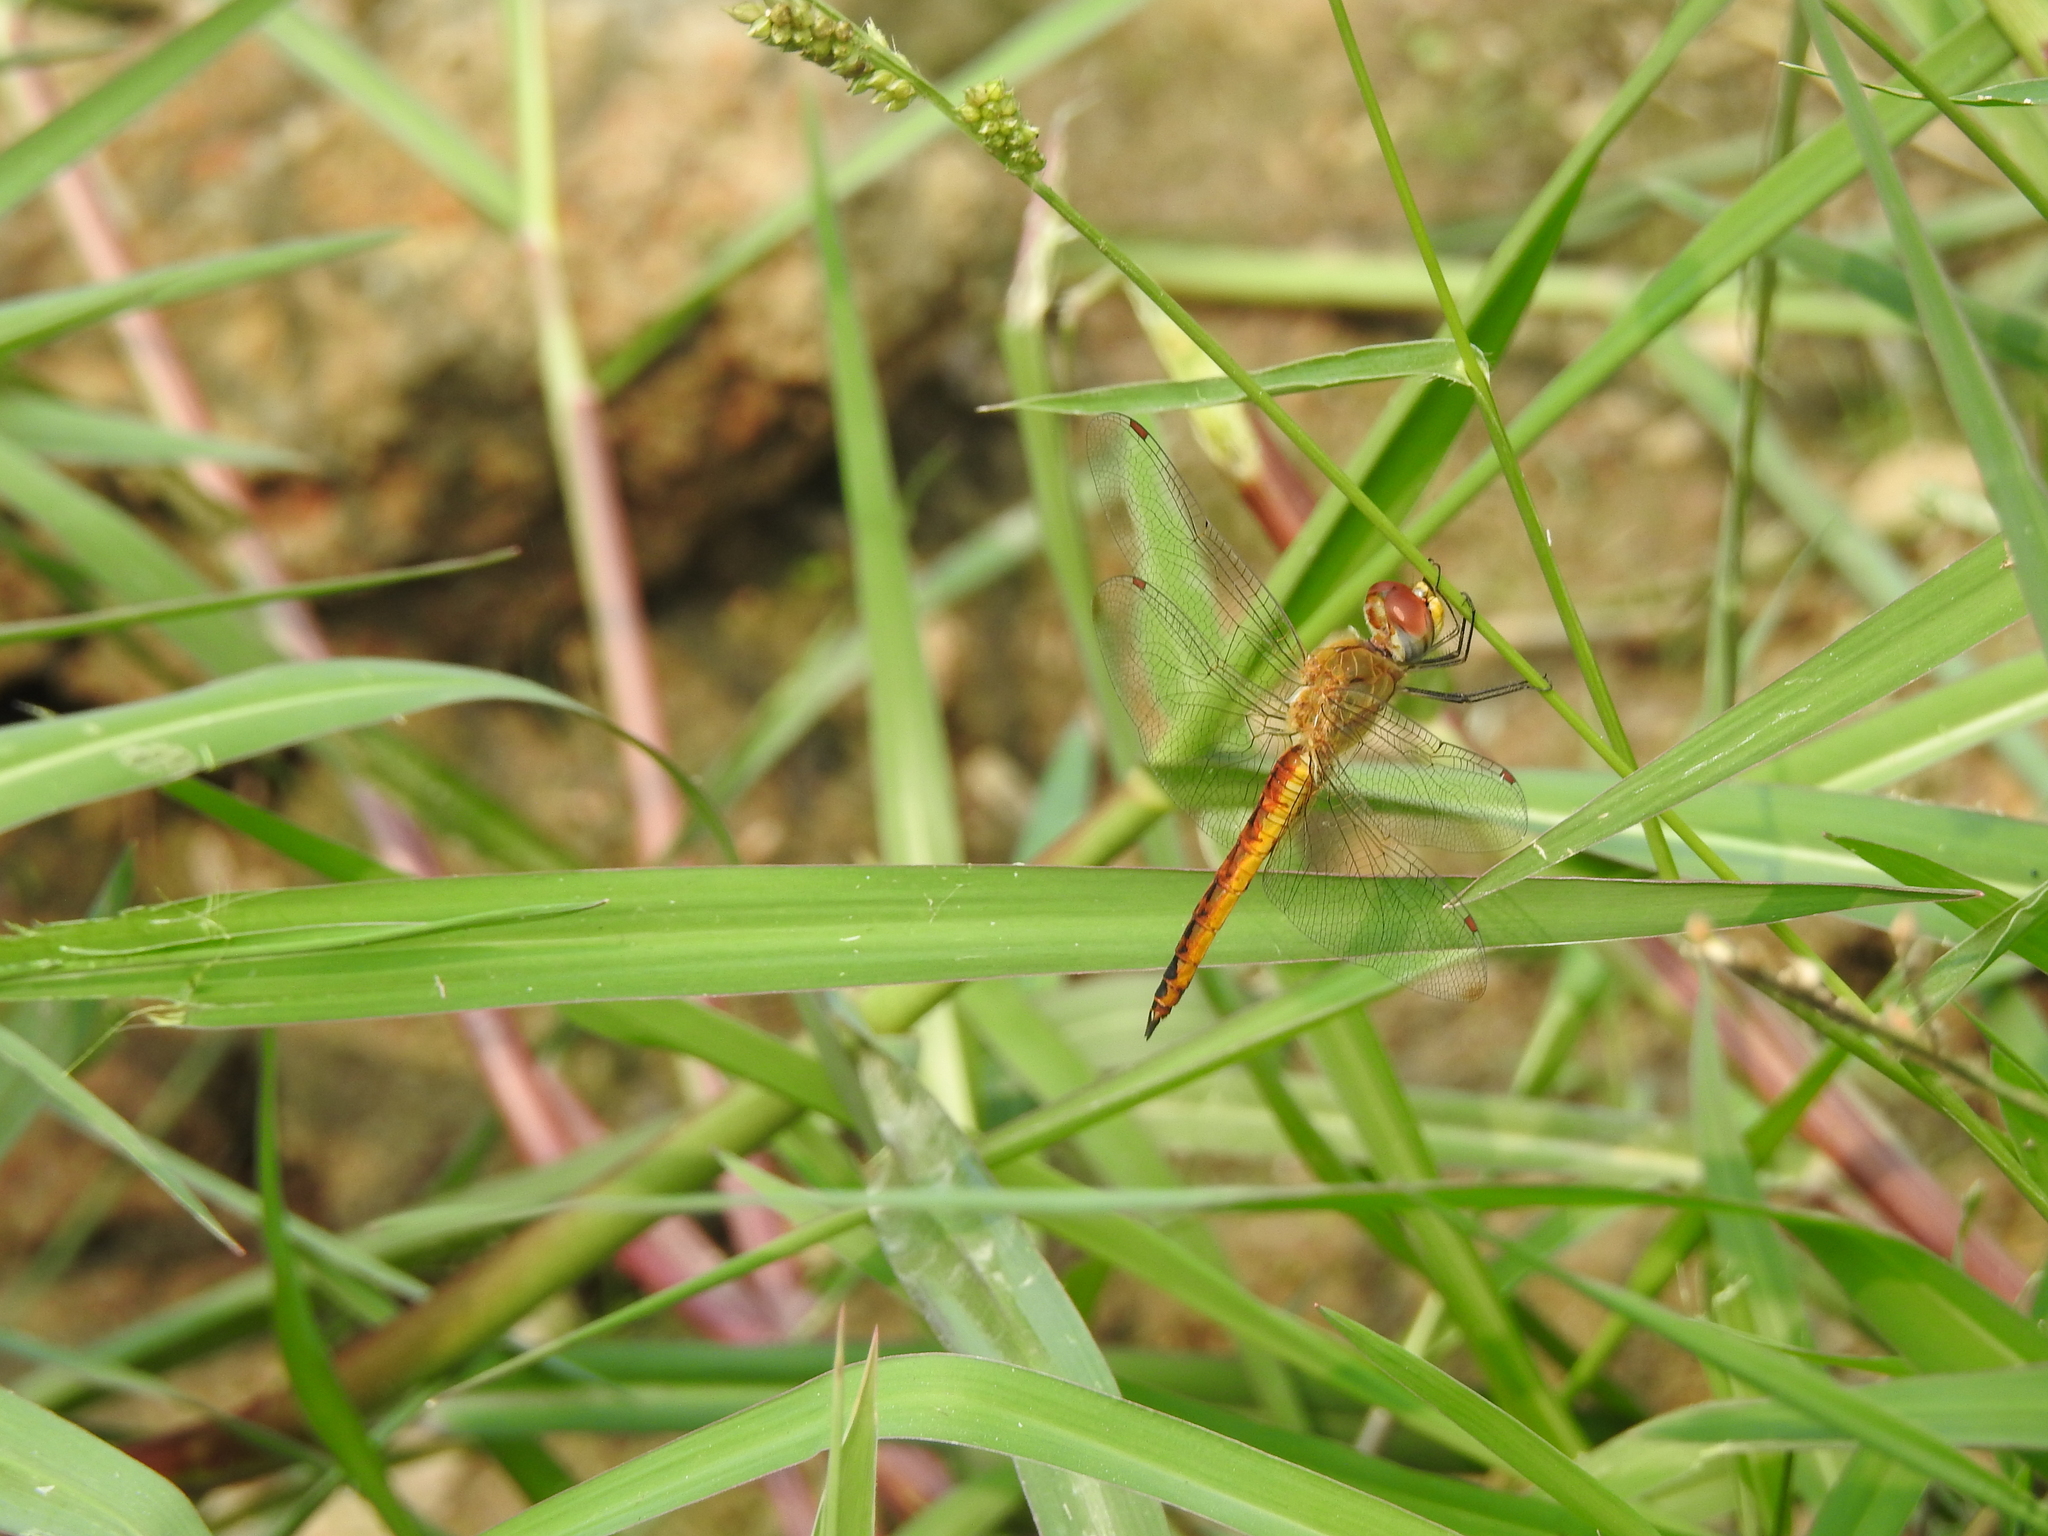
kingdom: Animalia
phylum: Arthropoda
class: Insecta
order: Odonata
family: Libellulidae
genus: Pantala
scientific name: Pantala flavescens
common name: Wandering glider
